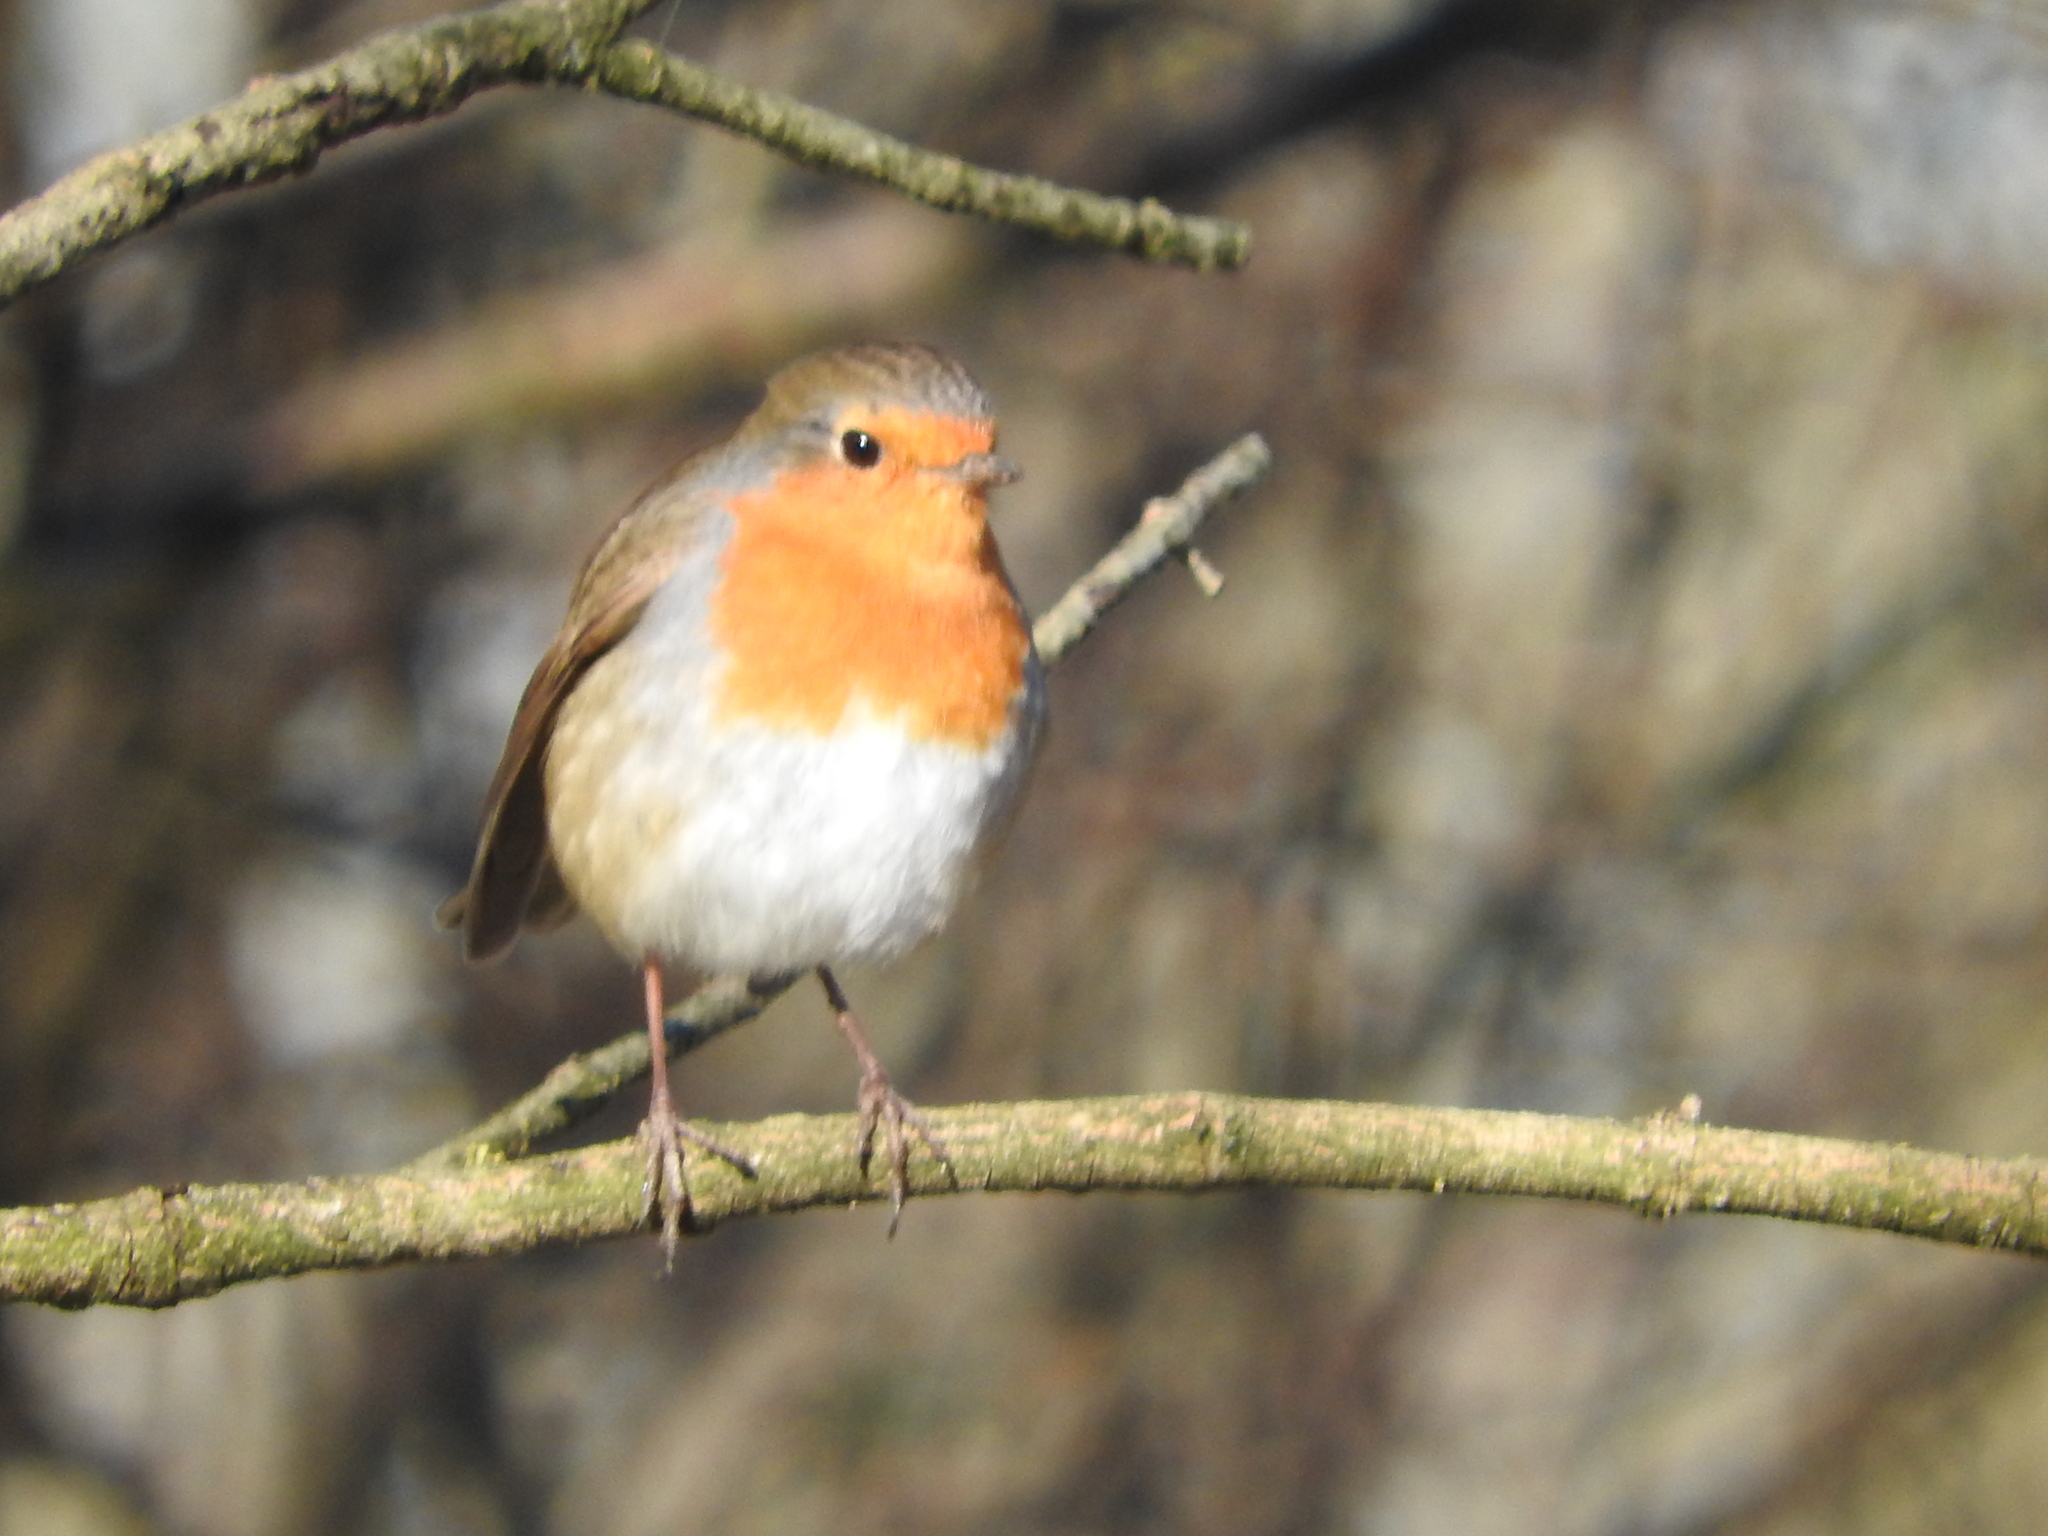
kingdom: Animalia
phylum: Chordata
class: Aves
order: Passeriformes
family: Muscicapidae
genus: Erithacus
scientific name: Erithacus rubecula
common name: European robin
